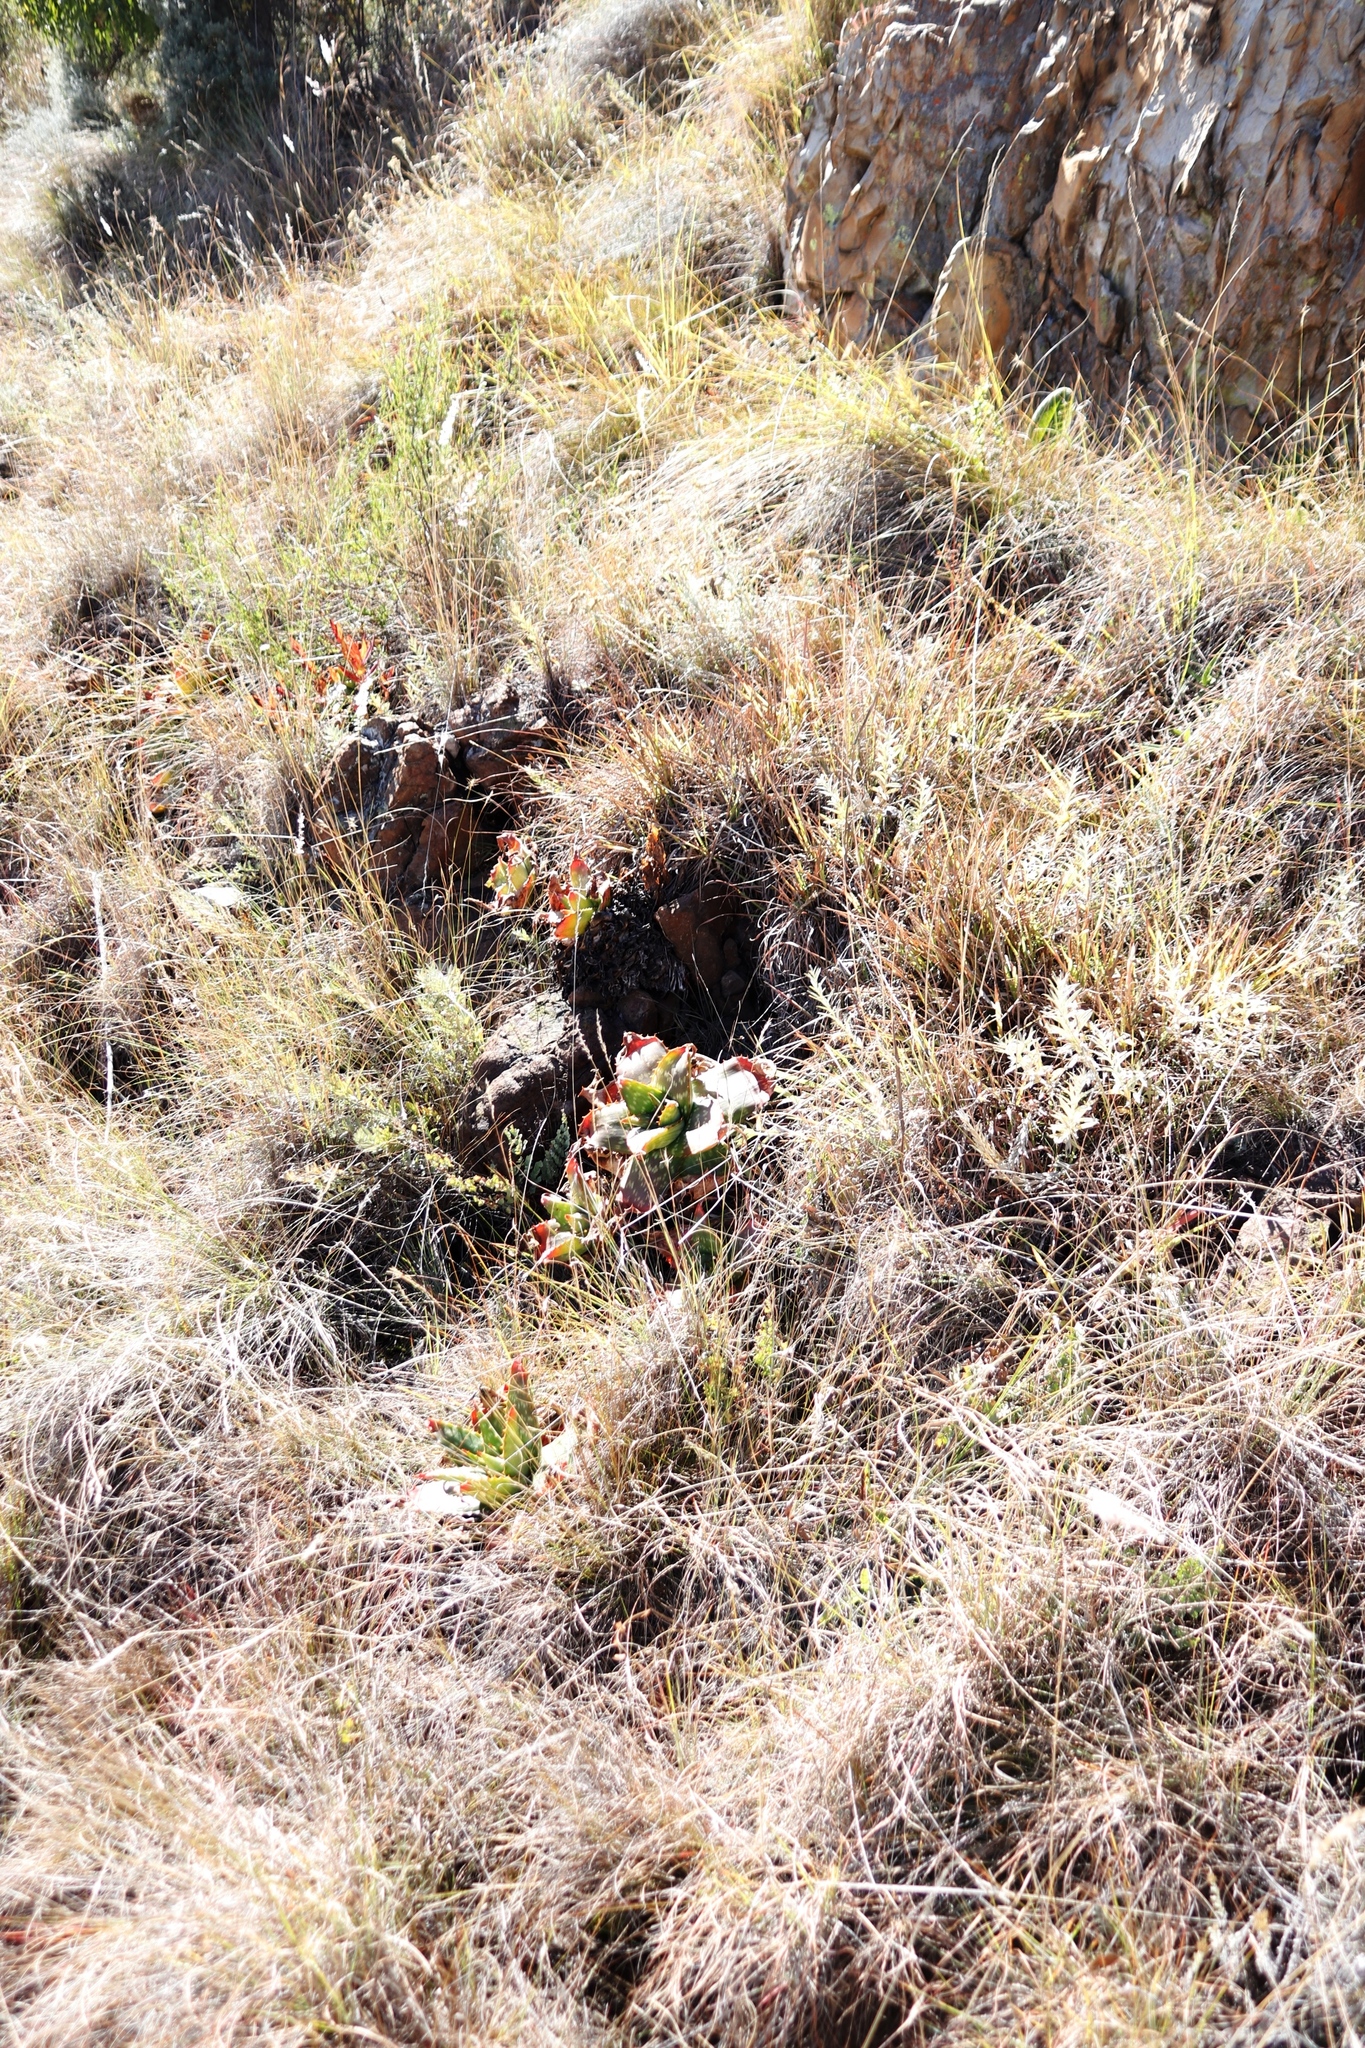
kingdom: Plantae
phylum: Tracheophyta
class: Liliopsida
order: Asparagales
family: Asphodelaceae
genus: Aloe
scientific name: Aloe maculata
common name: Broadleaf aloe
